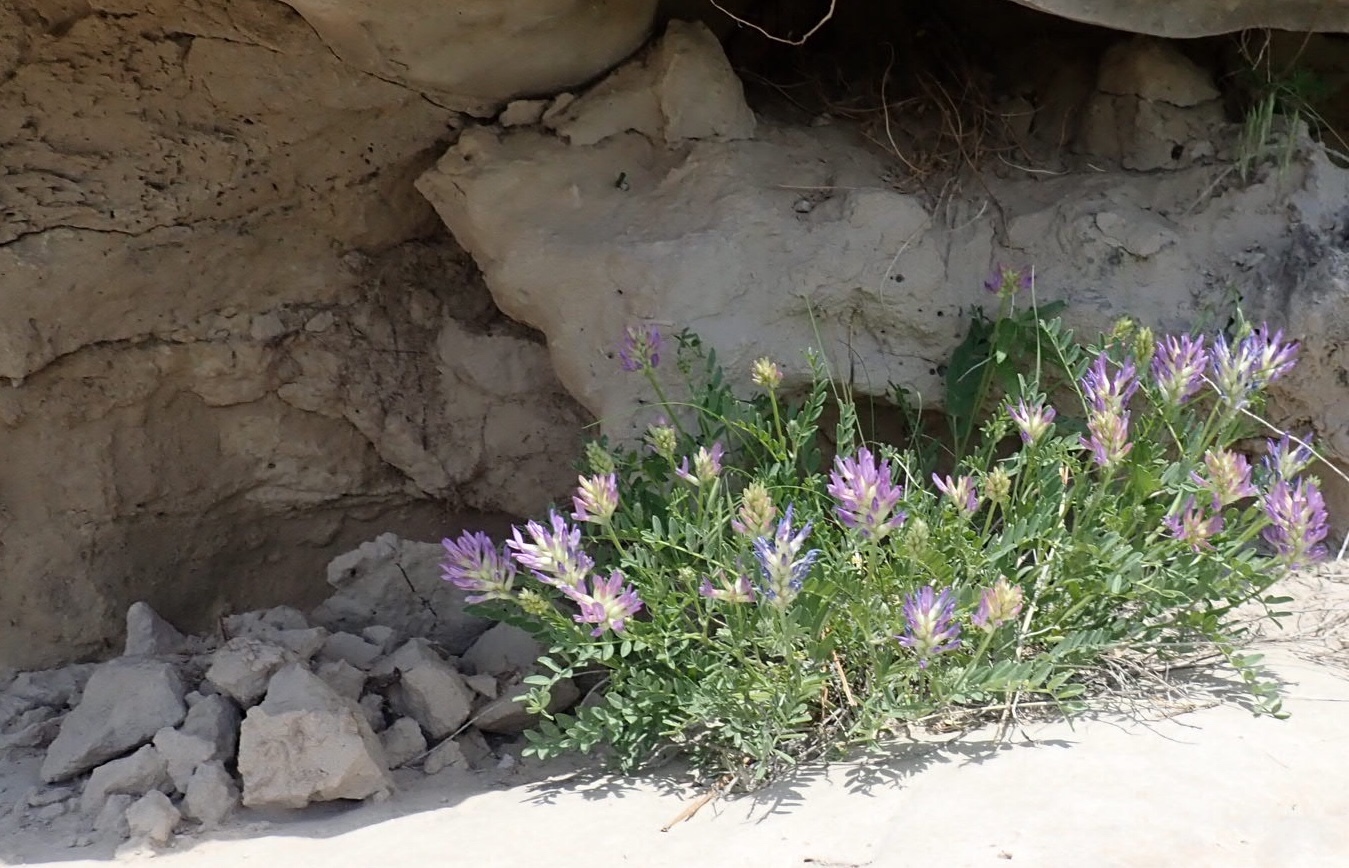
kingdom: Plantae
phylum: Tracheophyta
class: Magnoliopsida
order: Fabales
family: Fabaceae
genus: Oxytropis
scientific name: Oxytropis lambertii
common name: Purple locoweed
